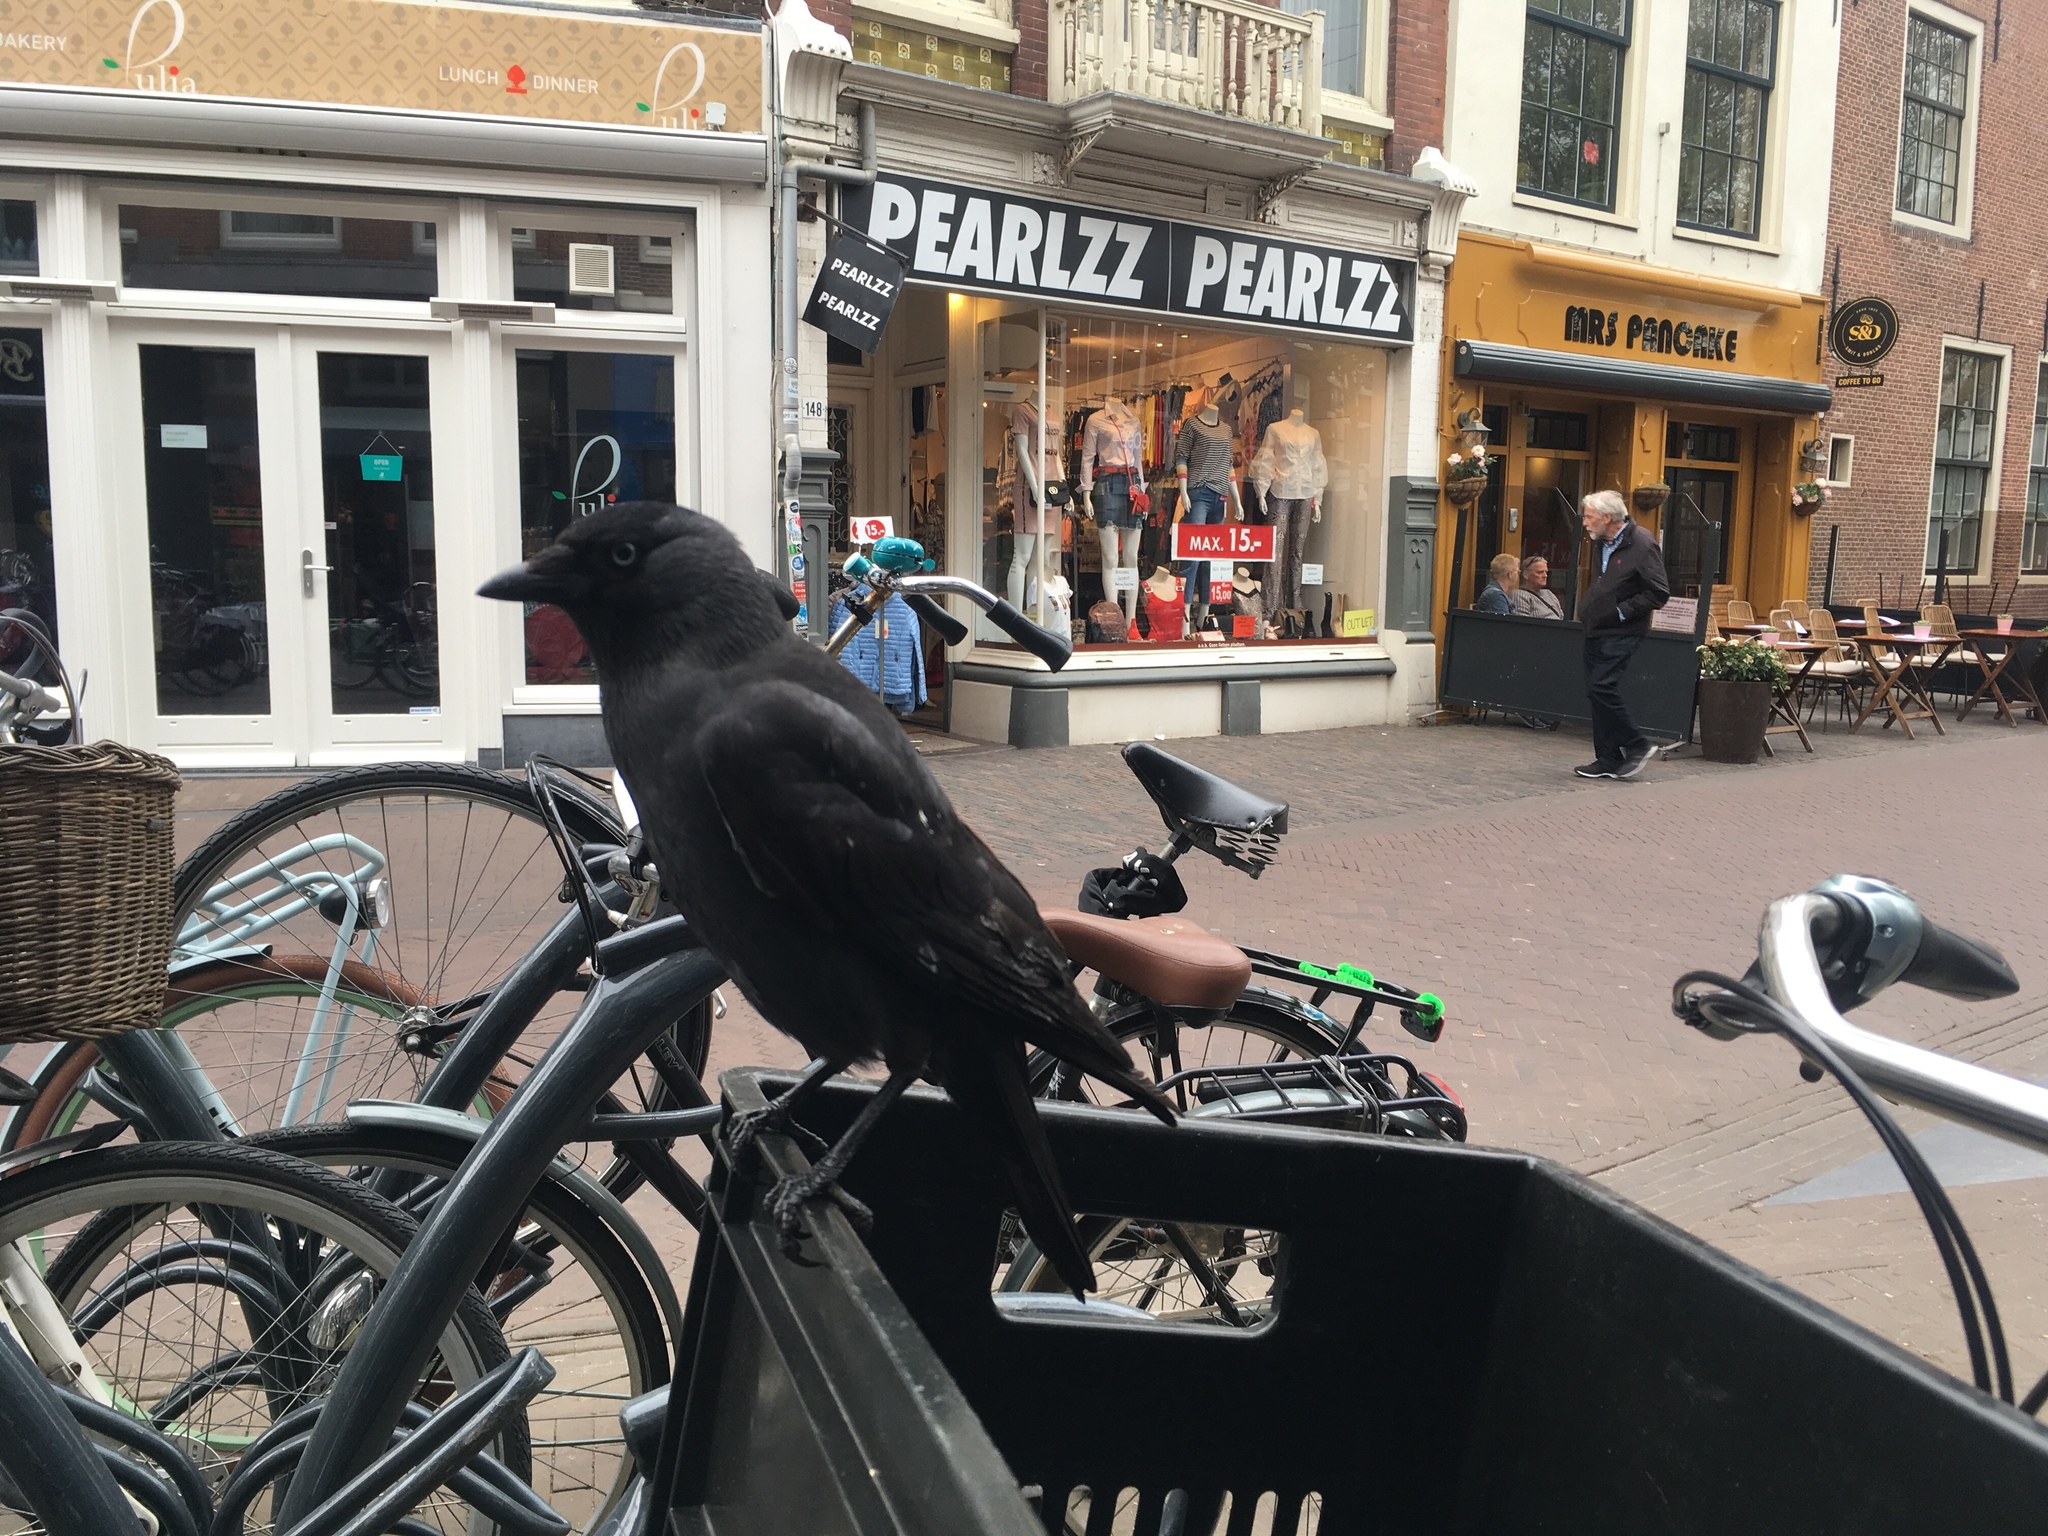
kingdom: Animalia
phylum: Chordata
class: Aves
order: Passeriformes
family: Corvidae
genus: Coloeus
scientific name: Coloeus monedula
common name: Western jackdaw
